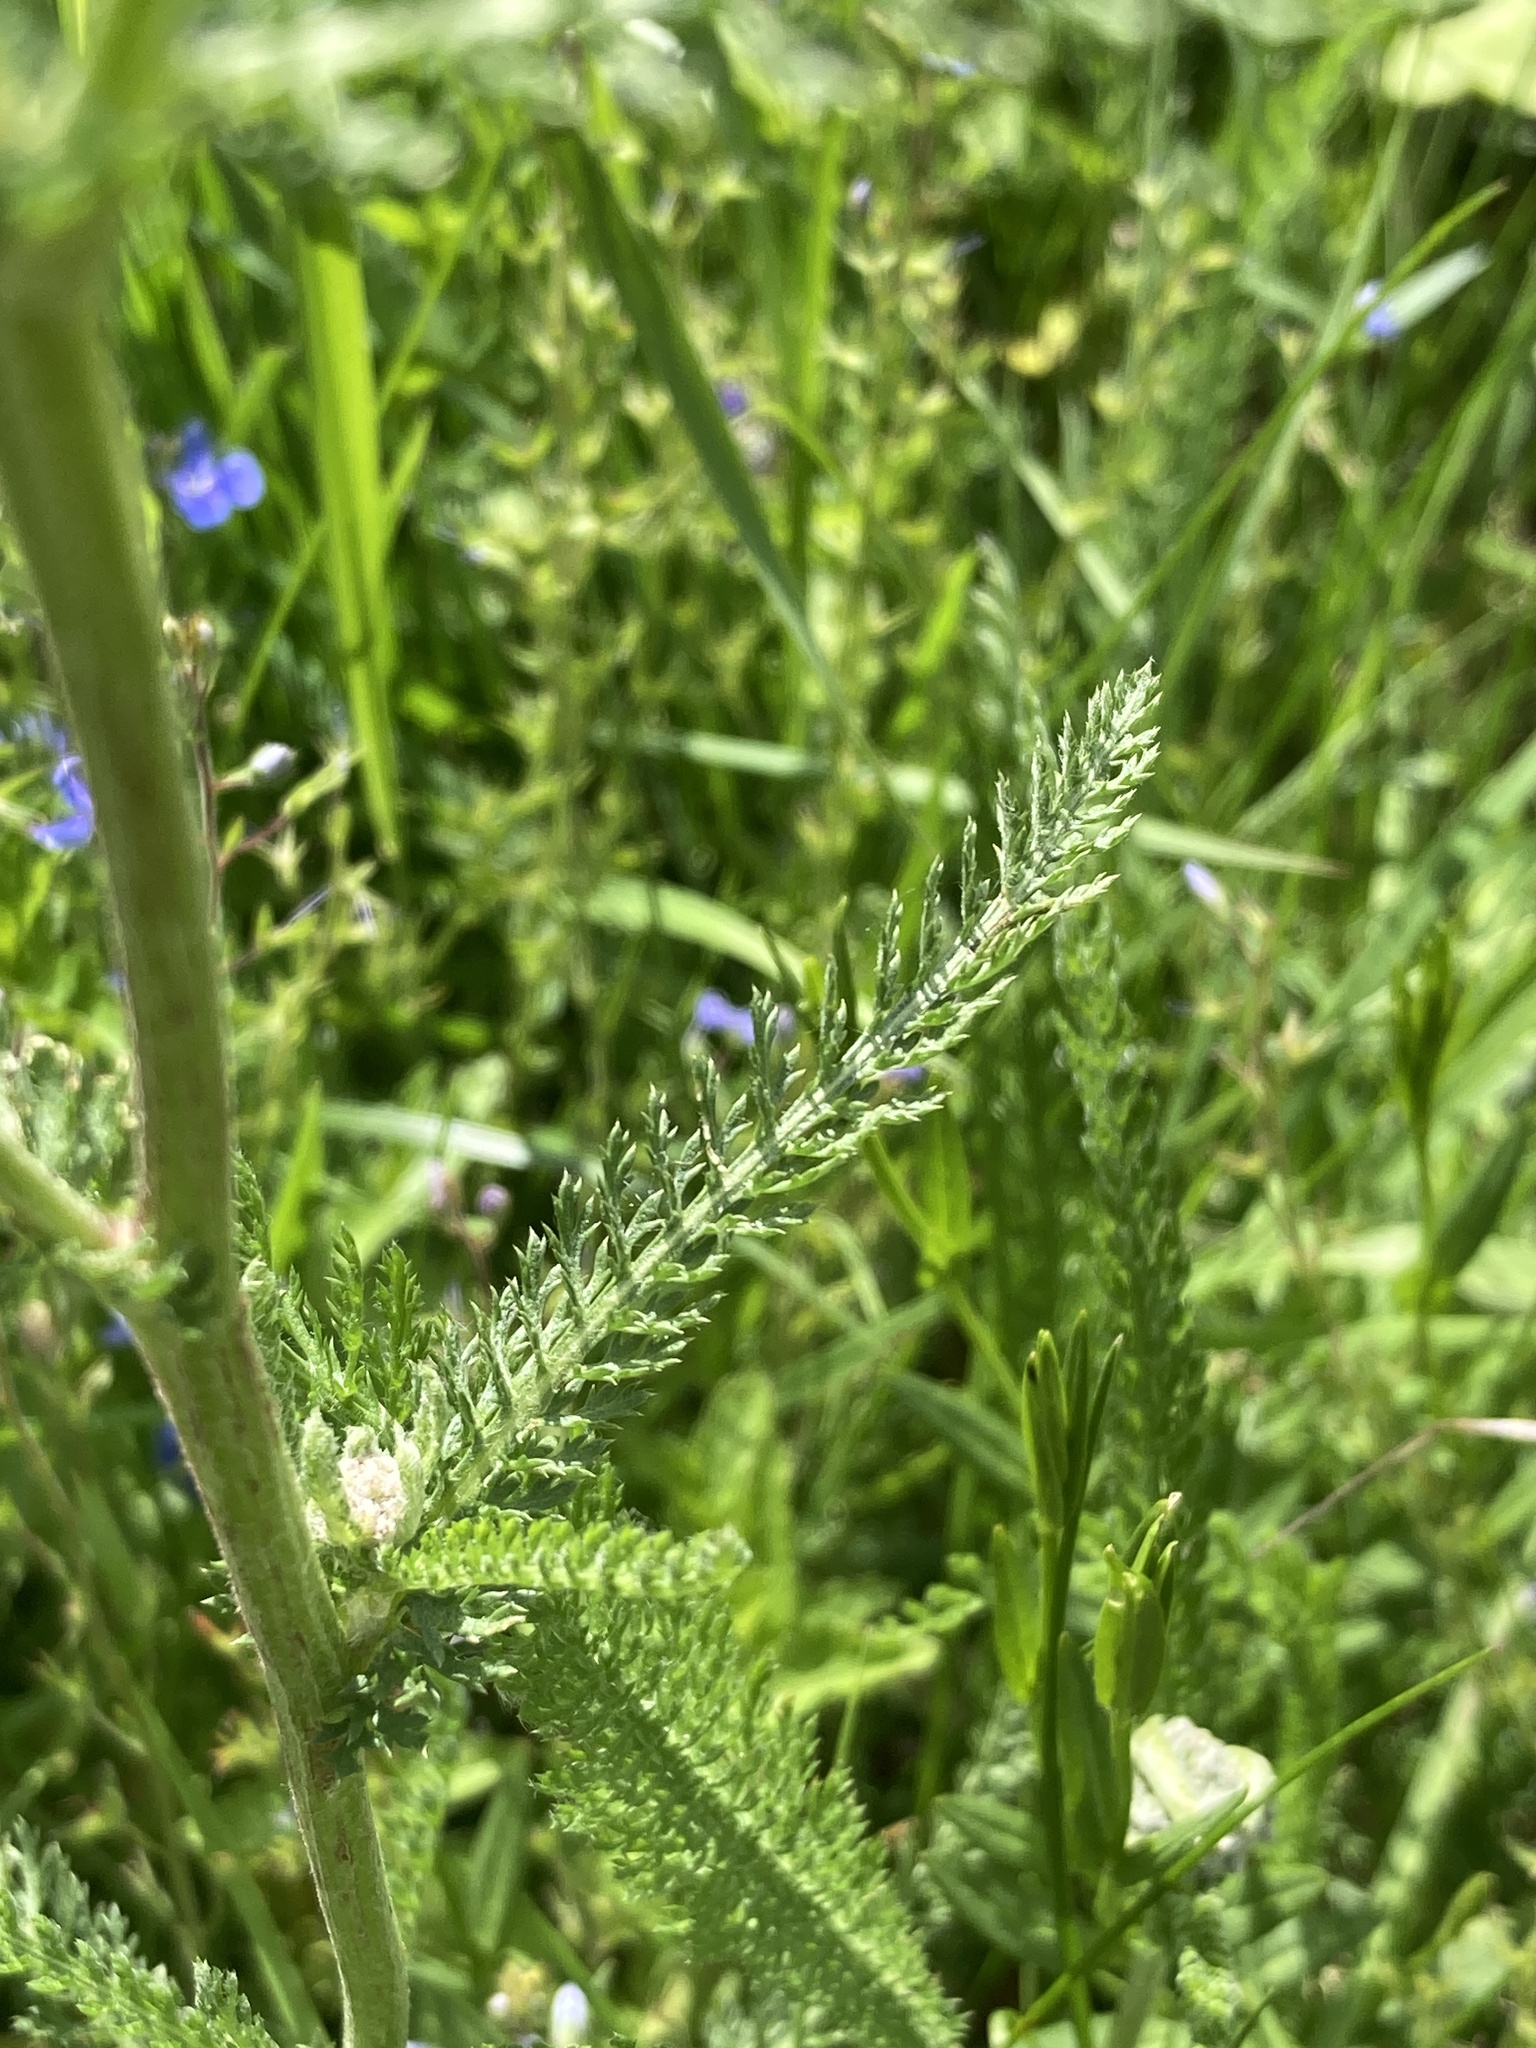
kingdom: Plantae
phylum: Tracheophyta
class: Magnoliopsida
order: Asterales
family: Asteraceae
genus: Achillea
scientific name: Achillea millefolium
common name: Yarrow
